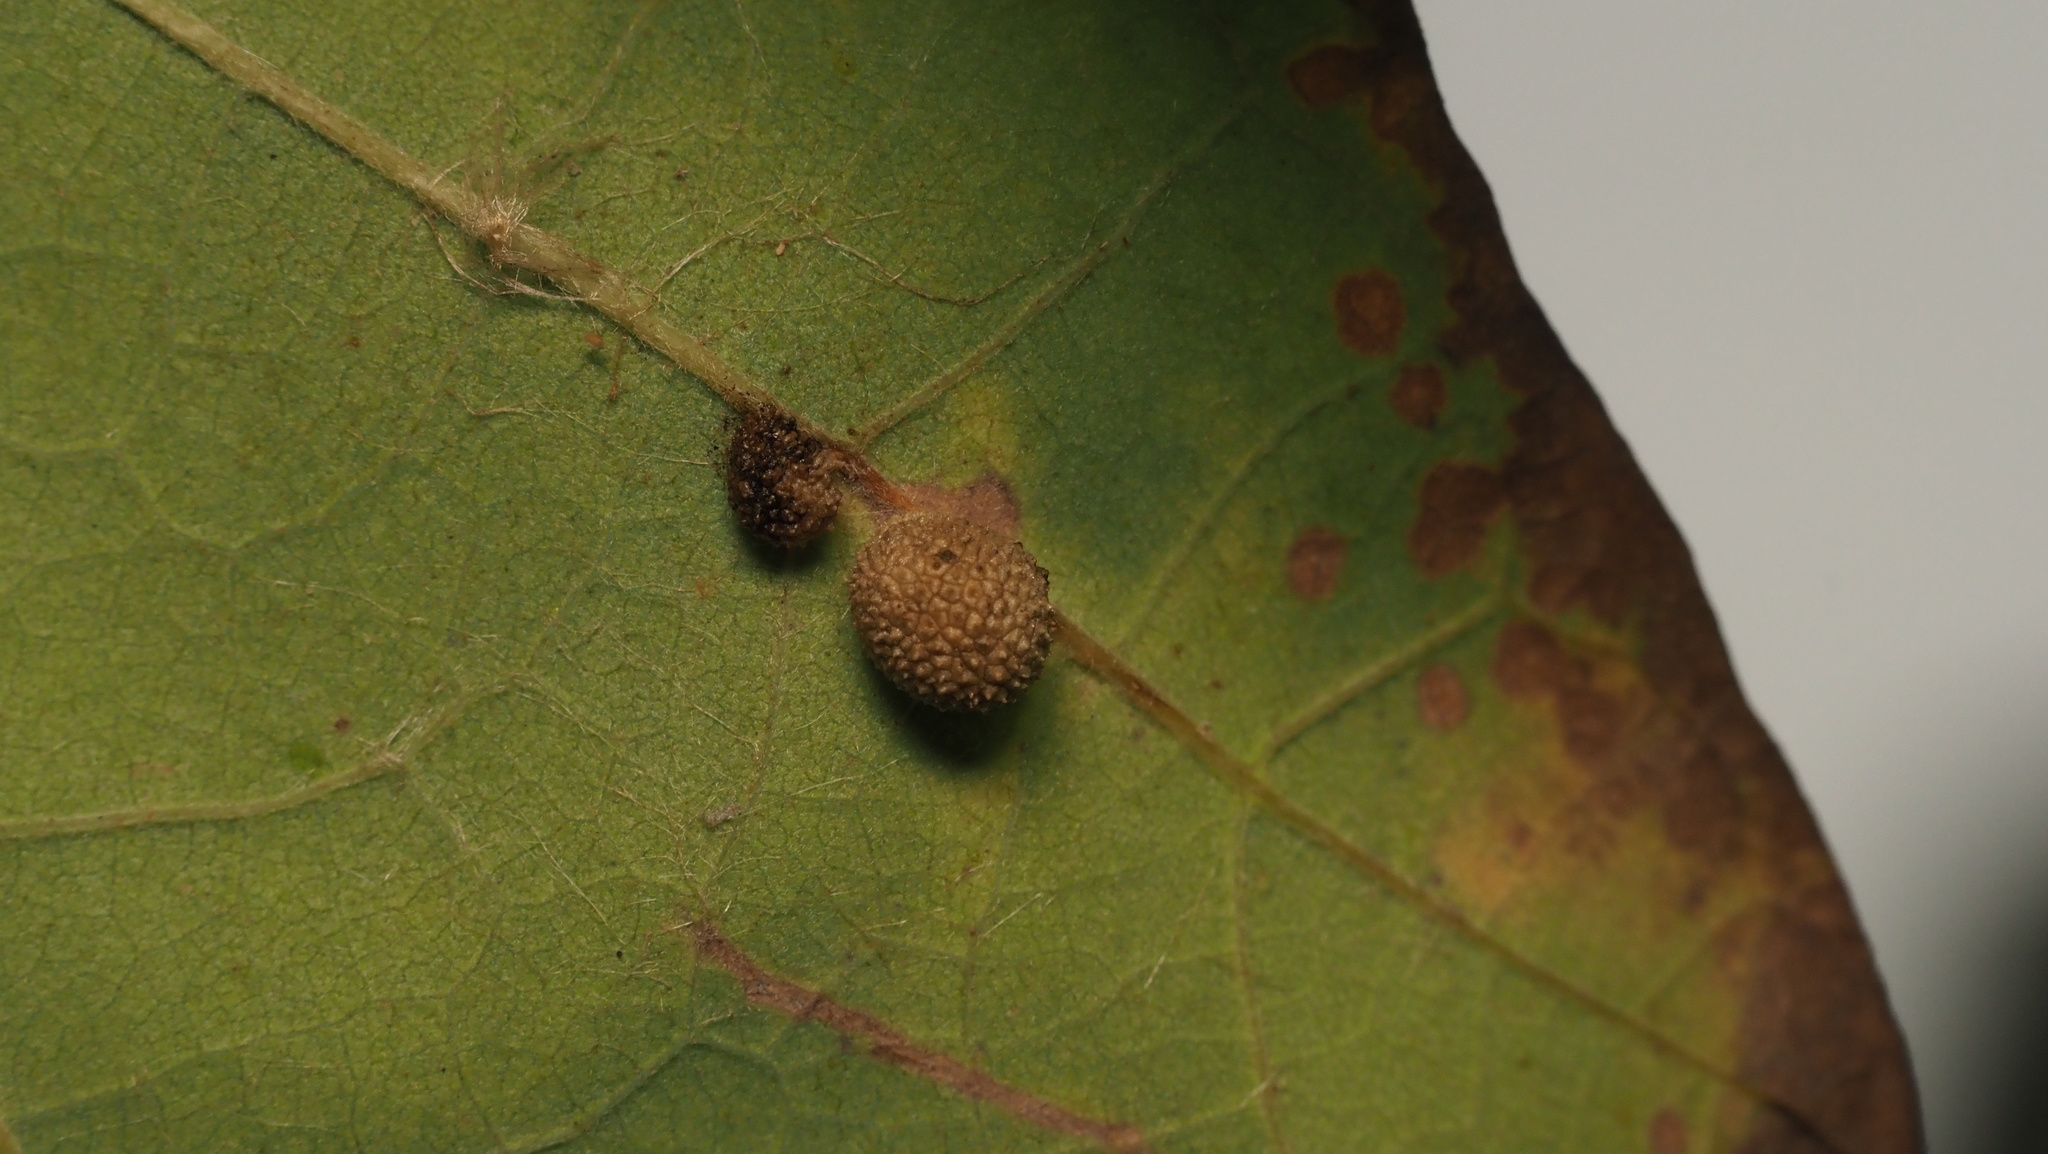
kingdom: Animalia
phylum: Arthropoda
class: Insecta
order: Hymenoptera
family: Cynipidae
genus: Acraspis
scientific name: Acraspis quercushirta
